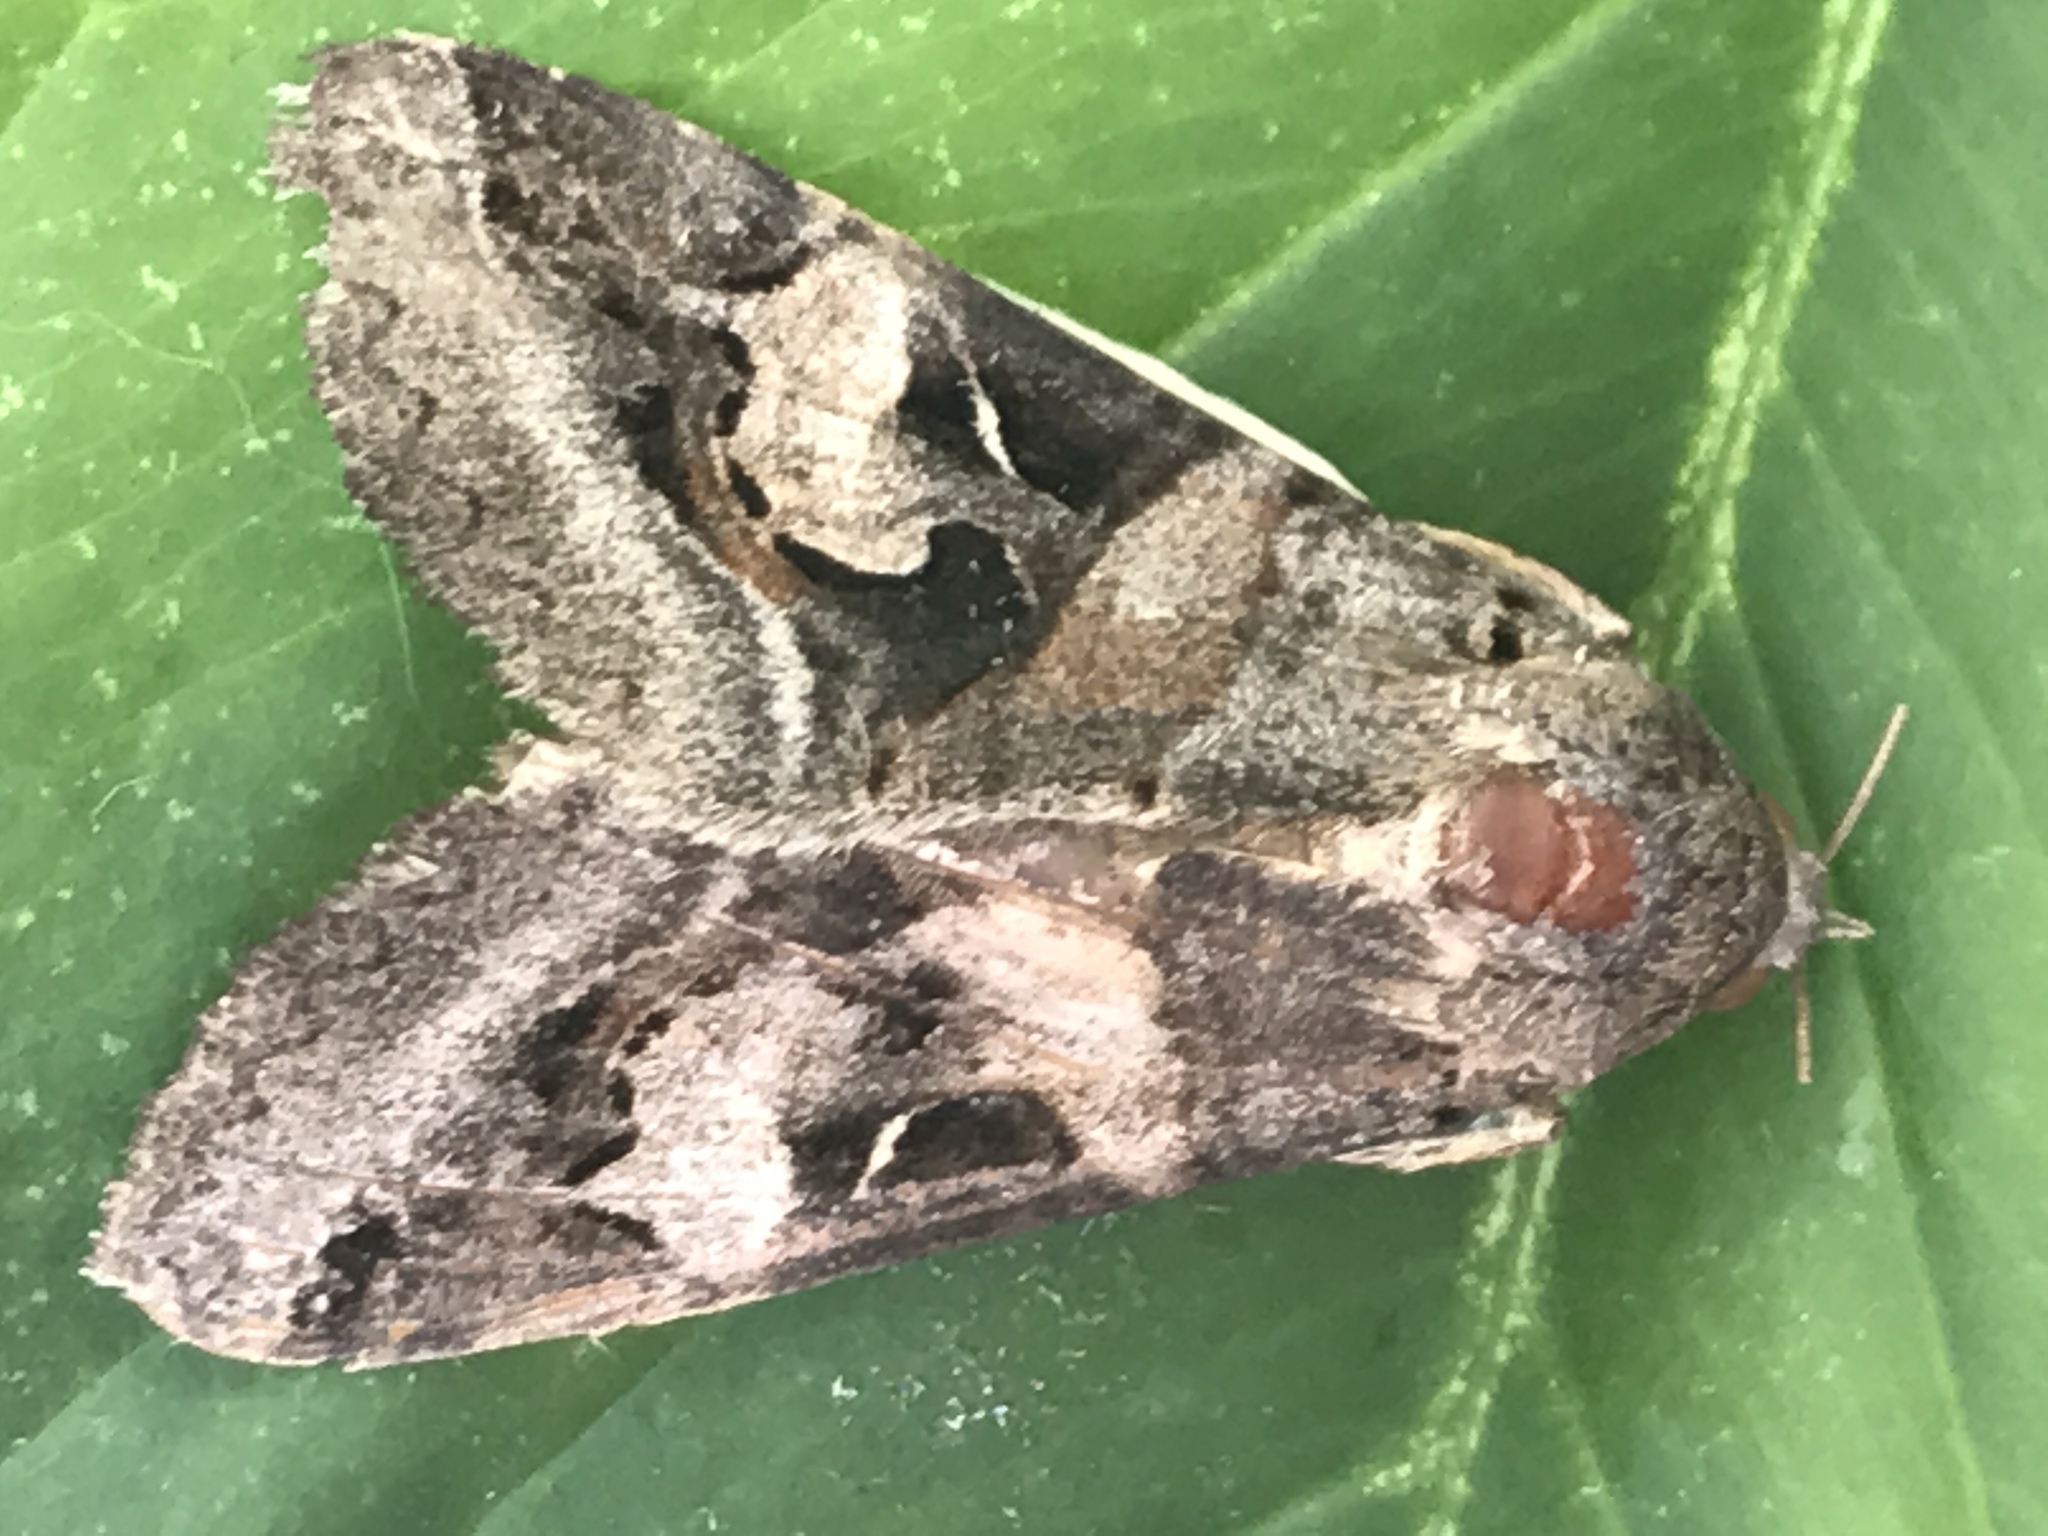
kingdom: Animalia
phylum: Arthropoda
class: Insecta
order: Lepidoptera
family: Erebidae
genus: Melipotis
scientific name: Melipotis indomita
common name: Moth
